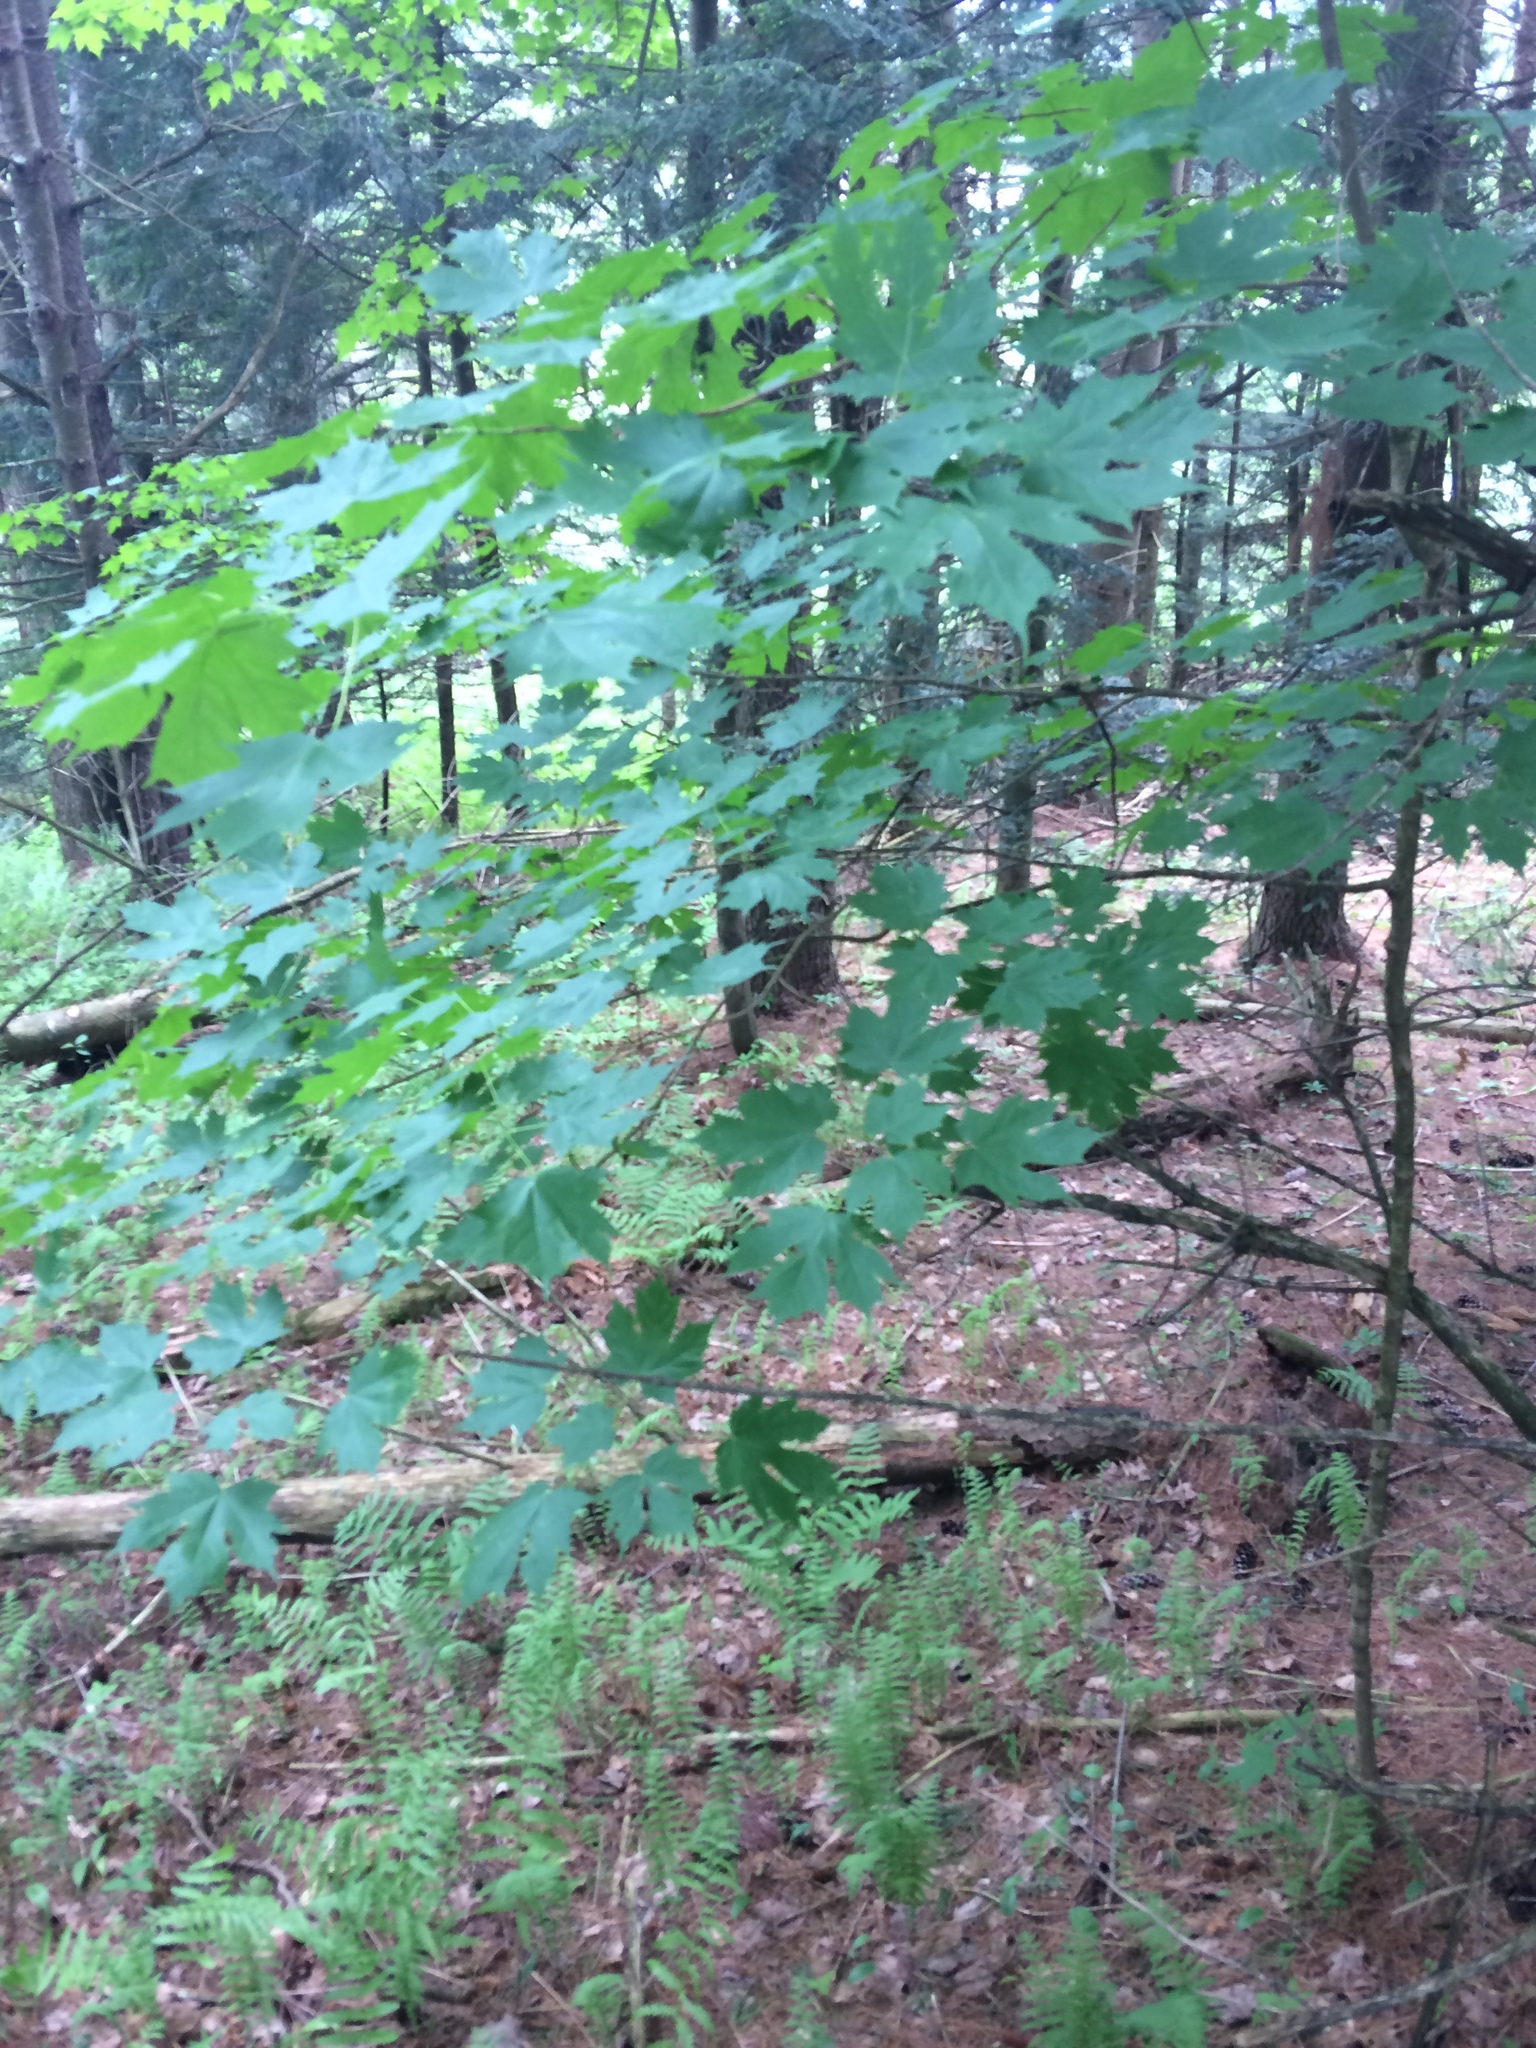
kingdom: Plantae
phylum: Tracheophyta
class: Magnoliopsida
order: Sapindales
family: Sapindaceae
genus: Acer
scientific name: Acer saccharum
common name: Sugar maple
